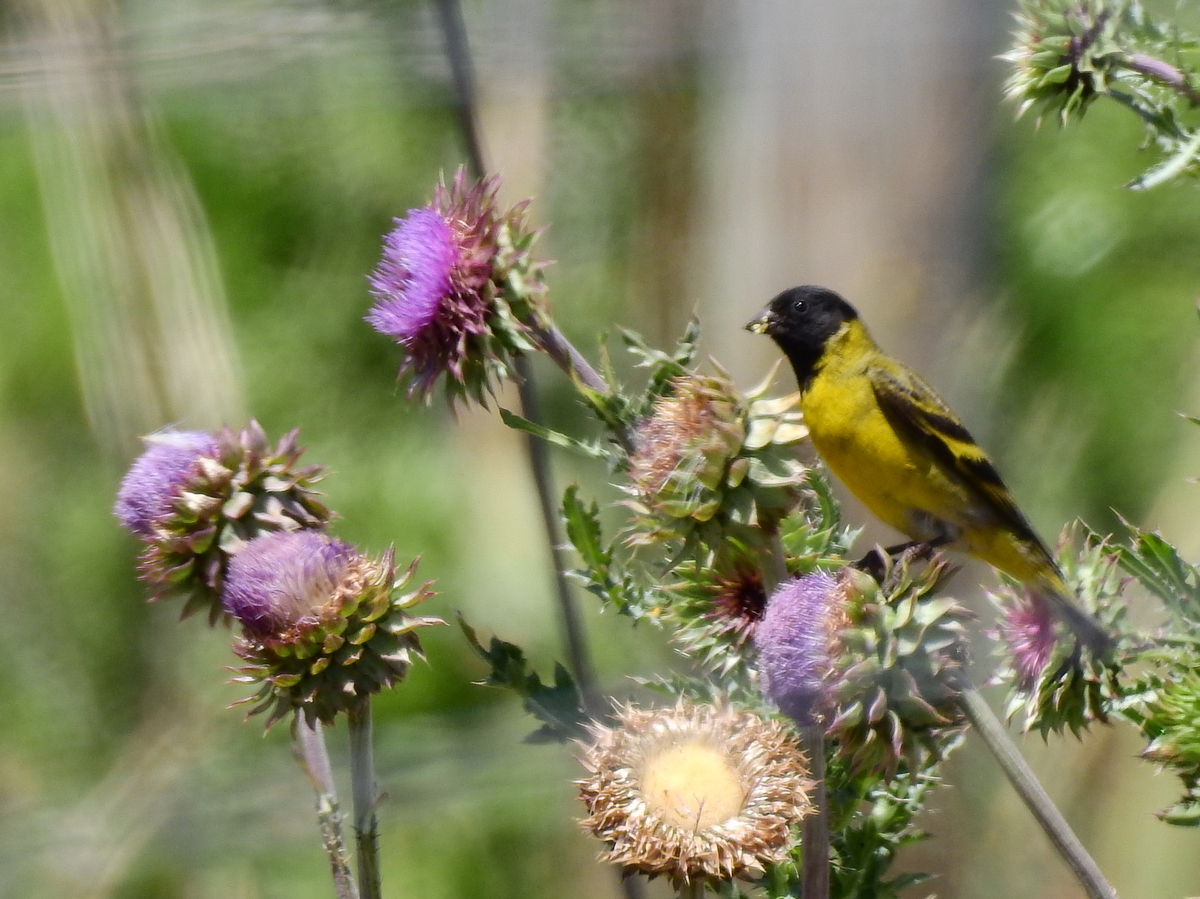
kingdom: Plantae
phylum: Tracheophyta
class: Magnoliopsida
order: Asterales
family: Asteraceae
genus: Carduus
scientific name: Carduus nutans
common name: Musk thistle
